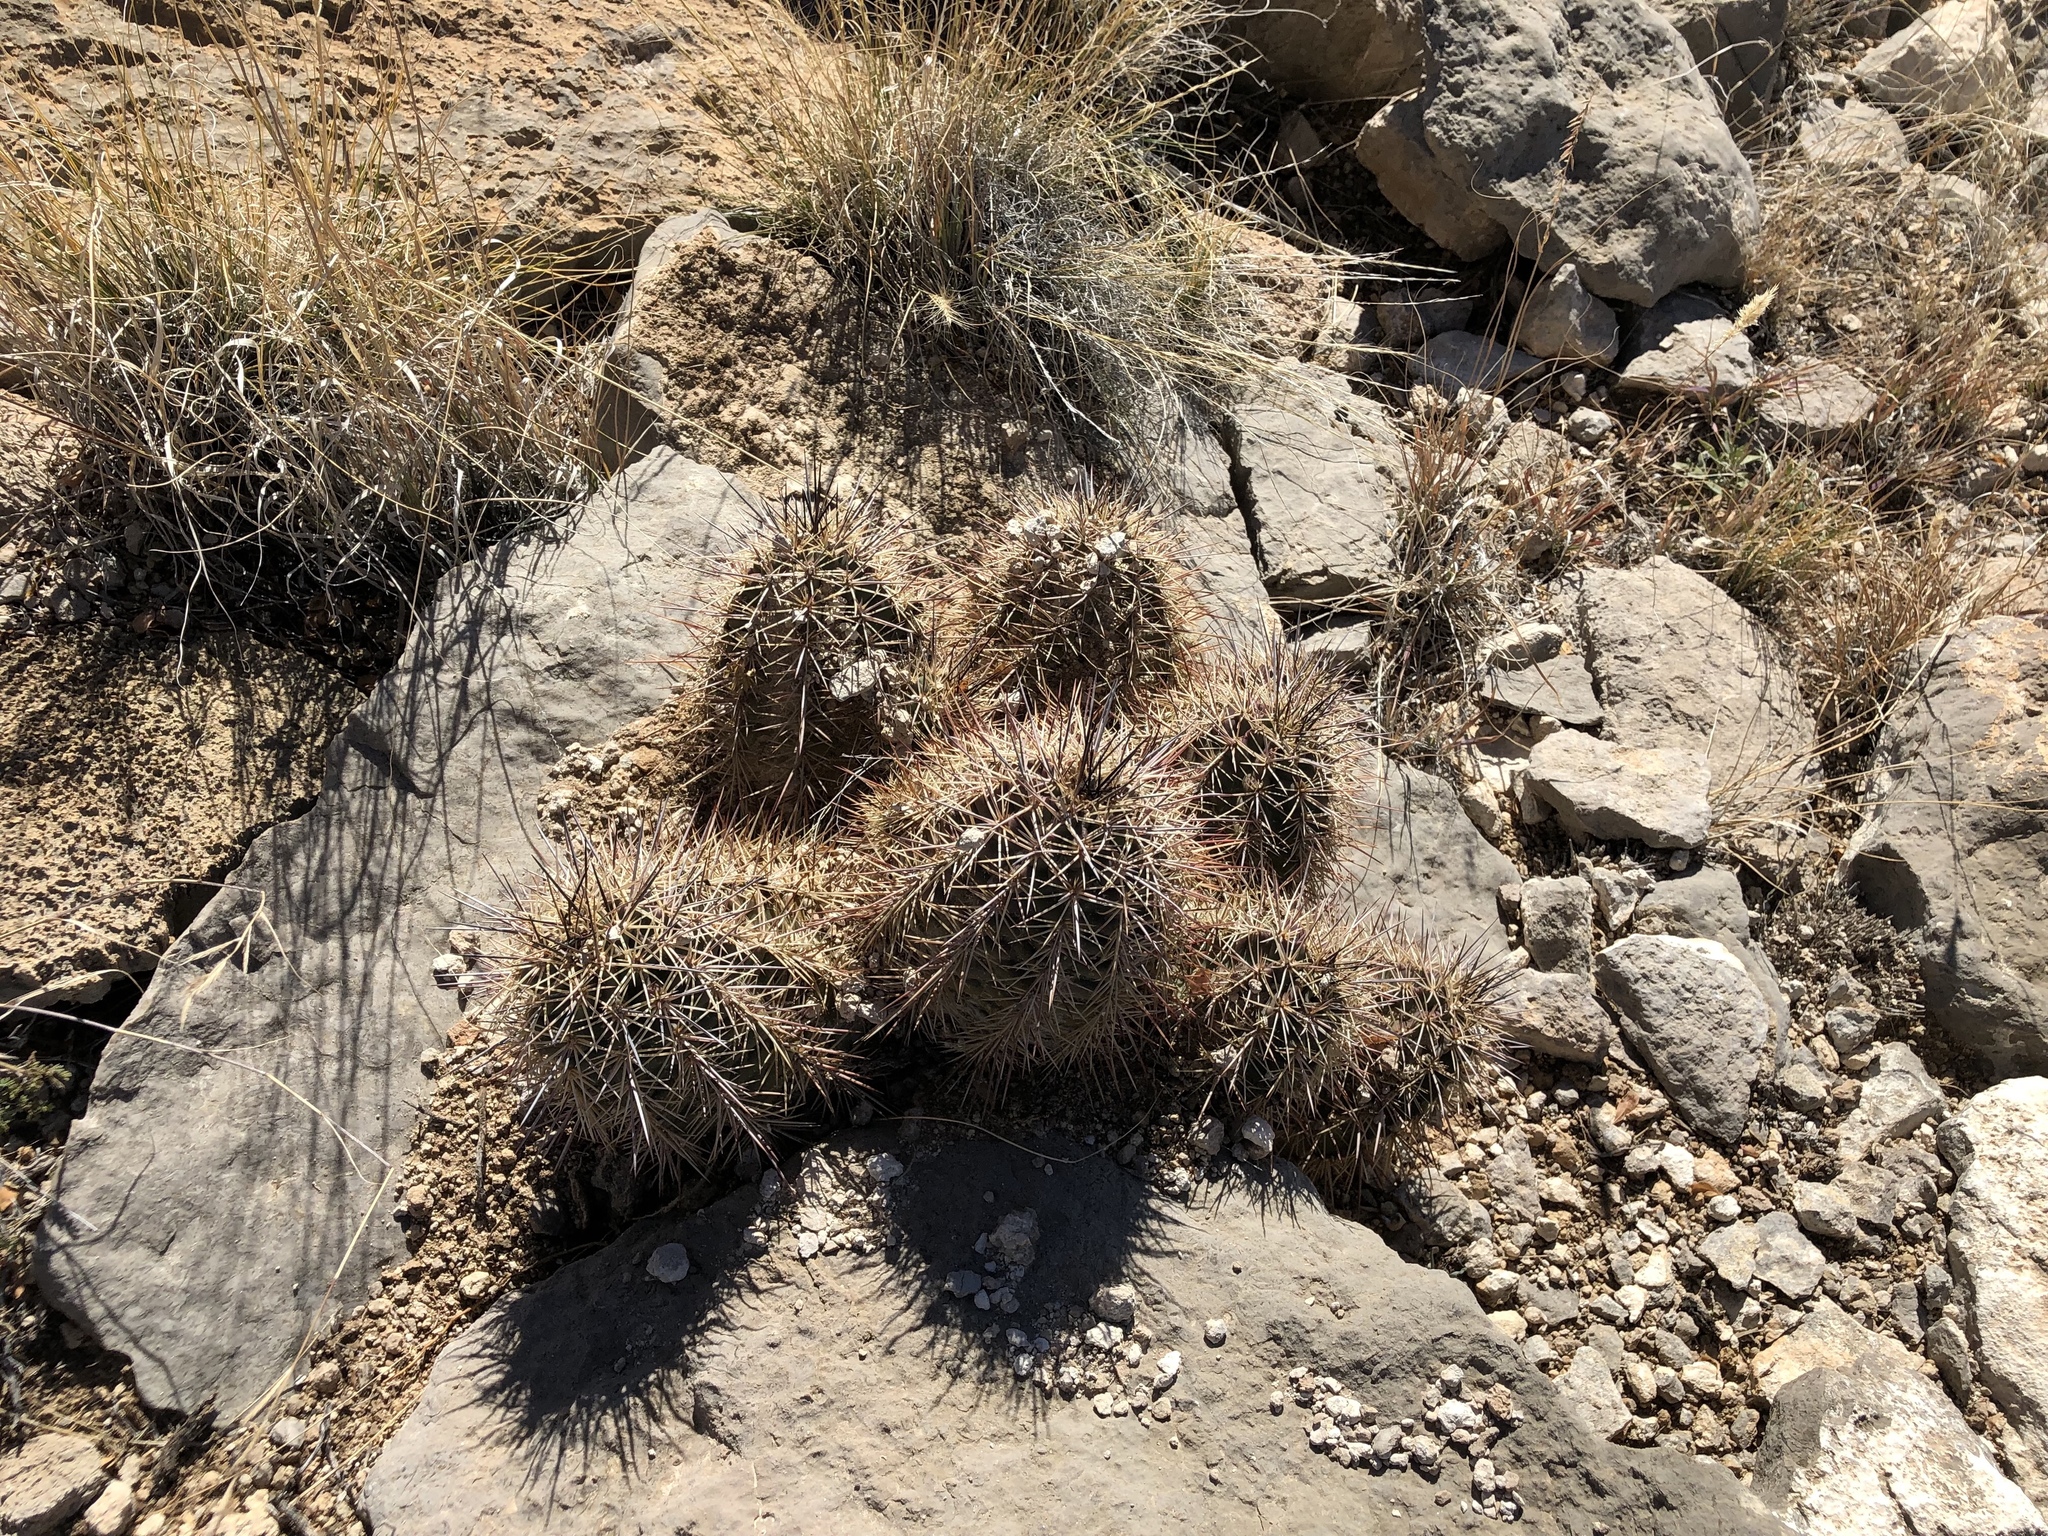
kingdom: Plantae
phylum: Tracheophyta
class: Magnoliopsida
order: Caryophyllales
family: Cactaceae
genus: Echinocereus
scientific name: Echinocereus coccineus
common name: Scarlet hedgehog cactus
